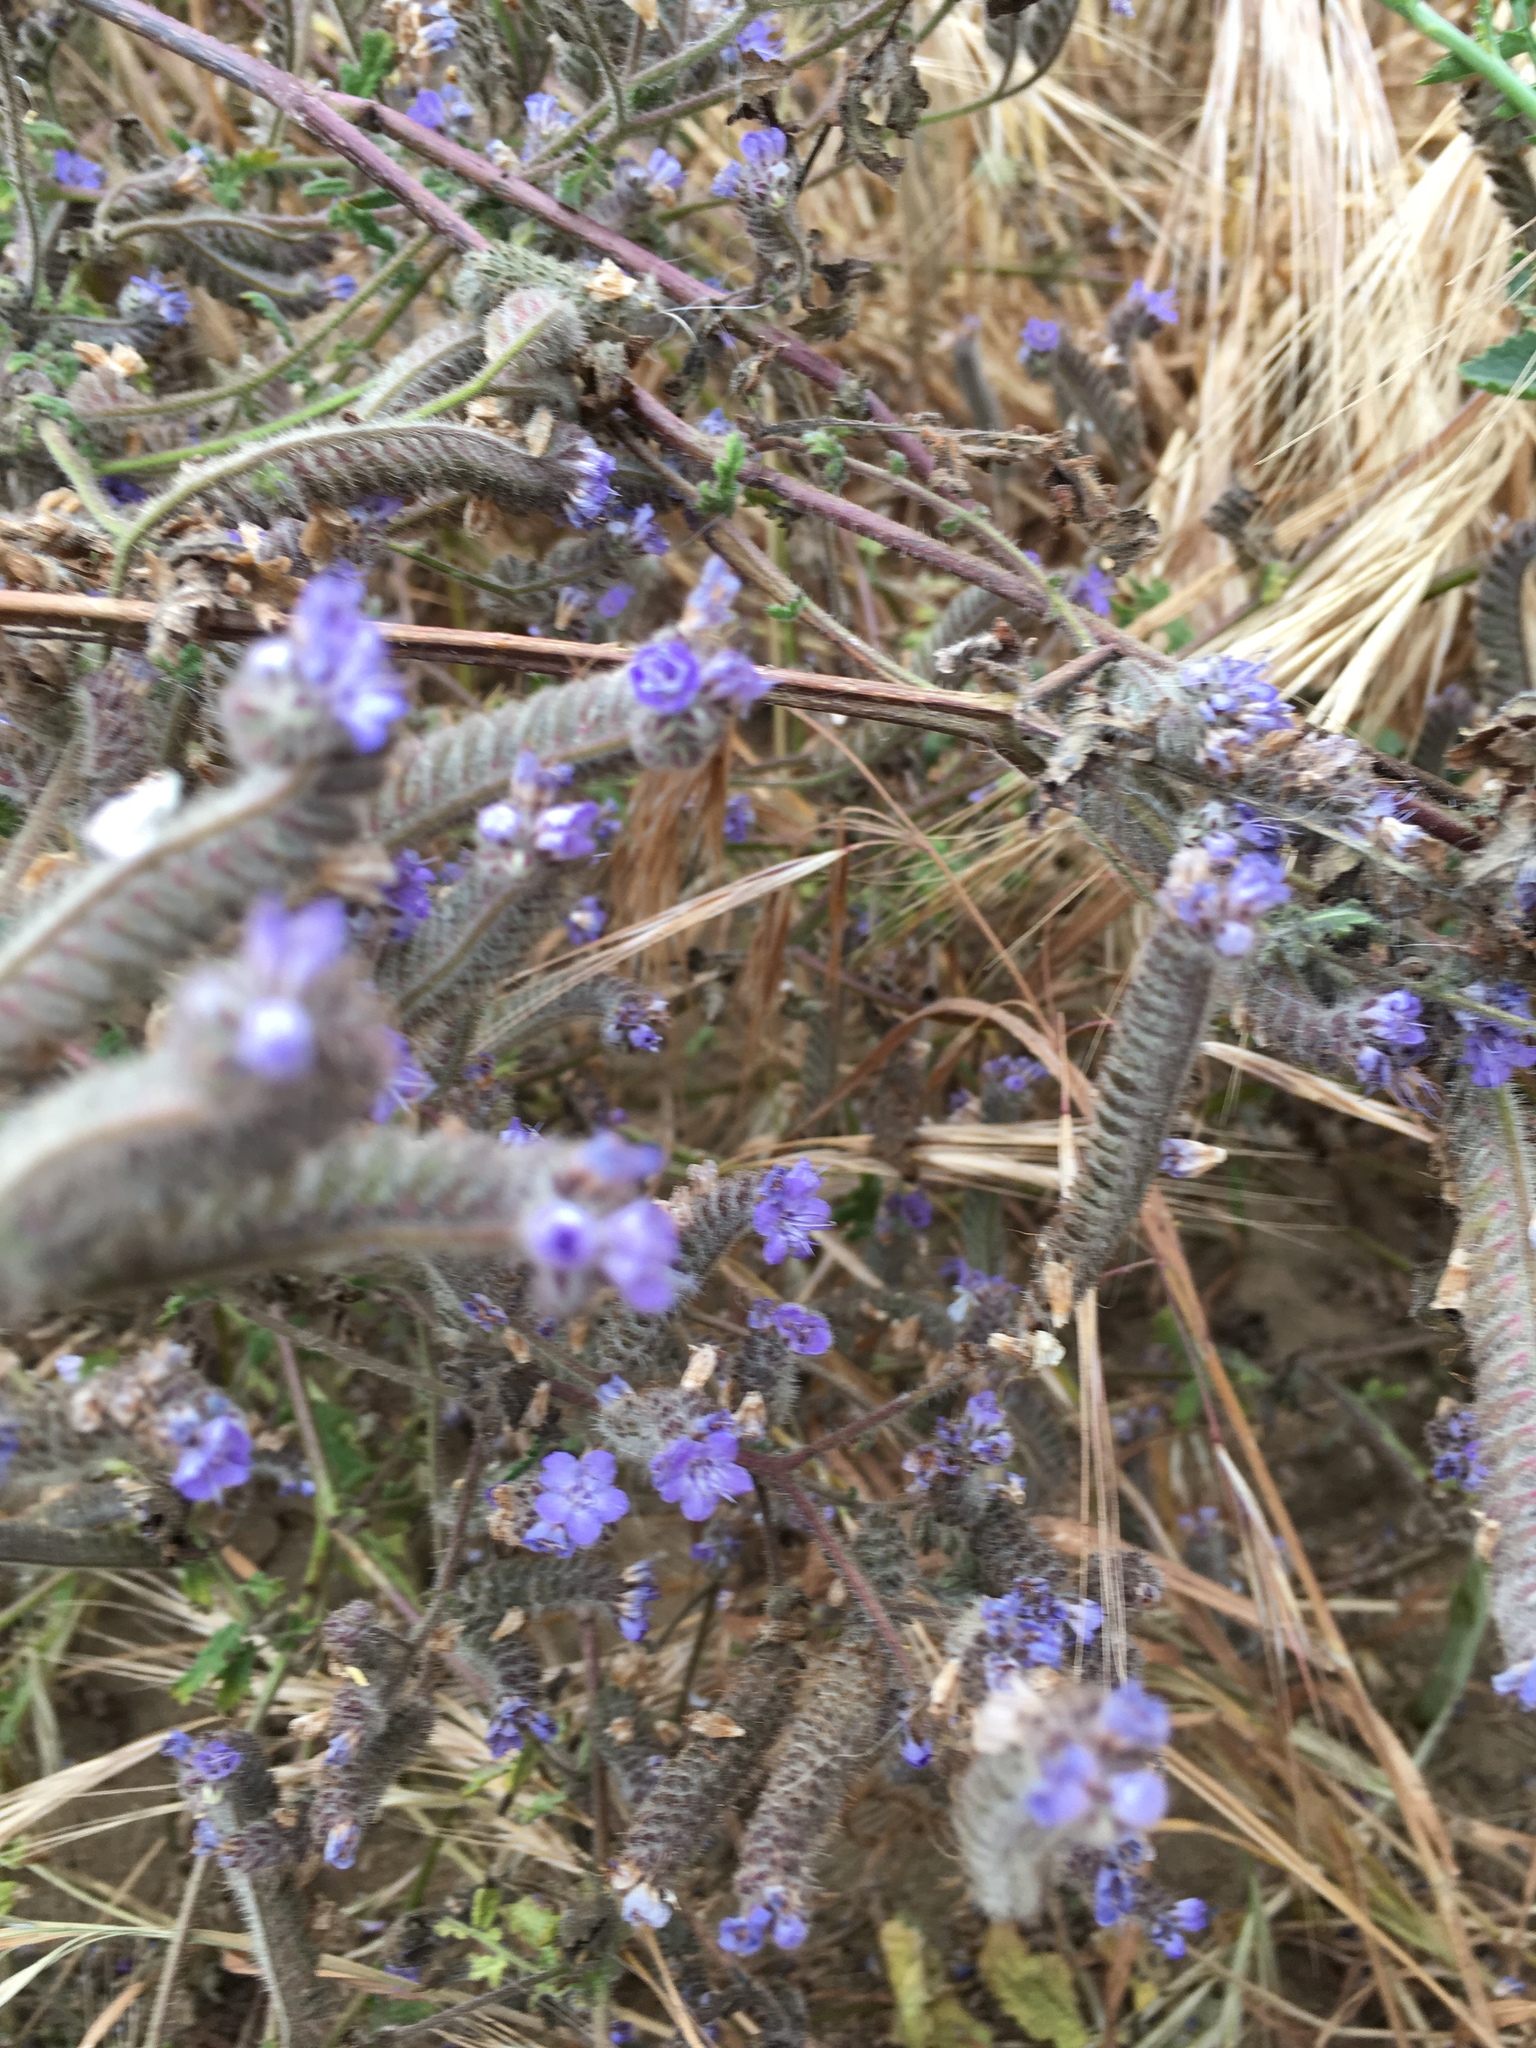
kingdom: Plantae
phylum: Tracheophyta
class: Magnoliopsida
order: Boraginales
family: Hydrophyllaceae
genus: Phacelia
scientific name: Phacelia distans
